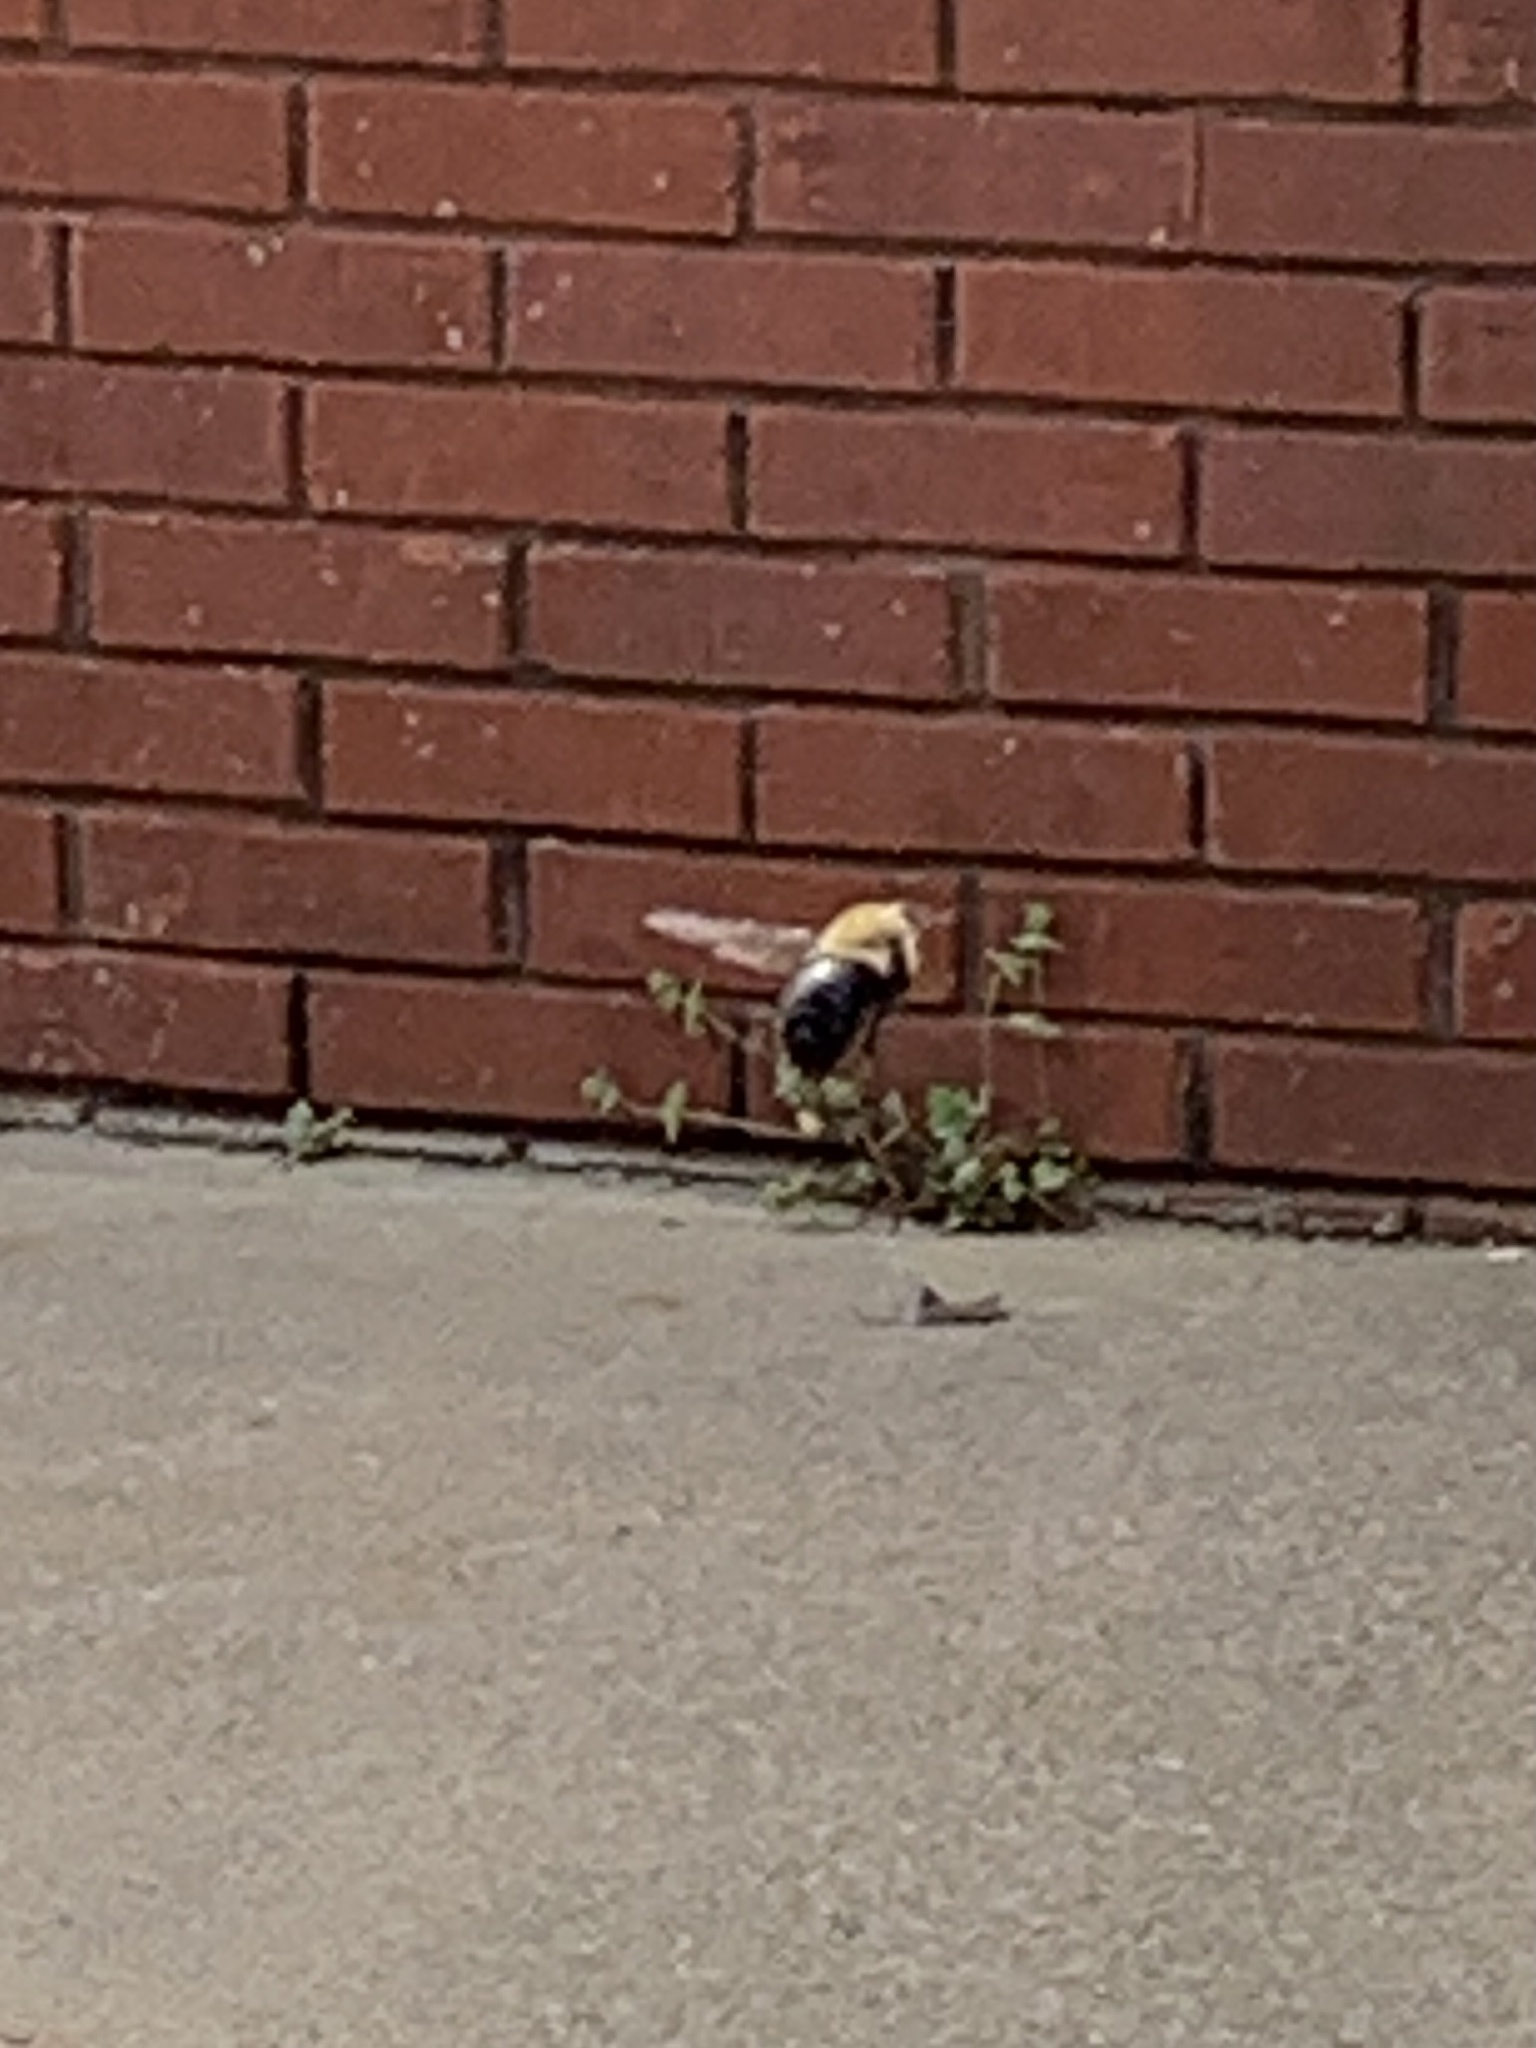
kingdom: Animalia
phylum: Arthropoda
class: Insecta
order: Hymenoptera
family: Apidae
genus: Xylocopa
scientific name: Xylocopa virginica
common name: Carpenter bee
